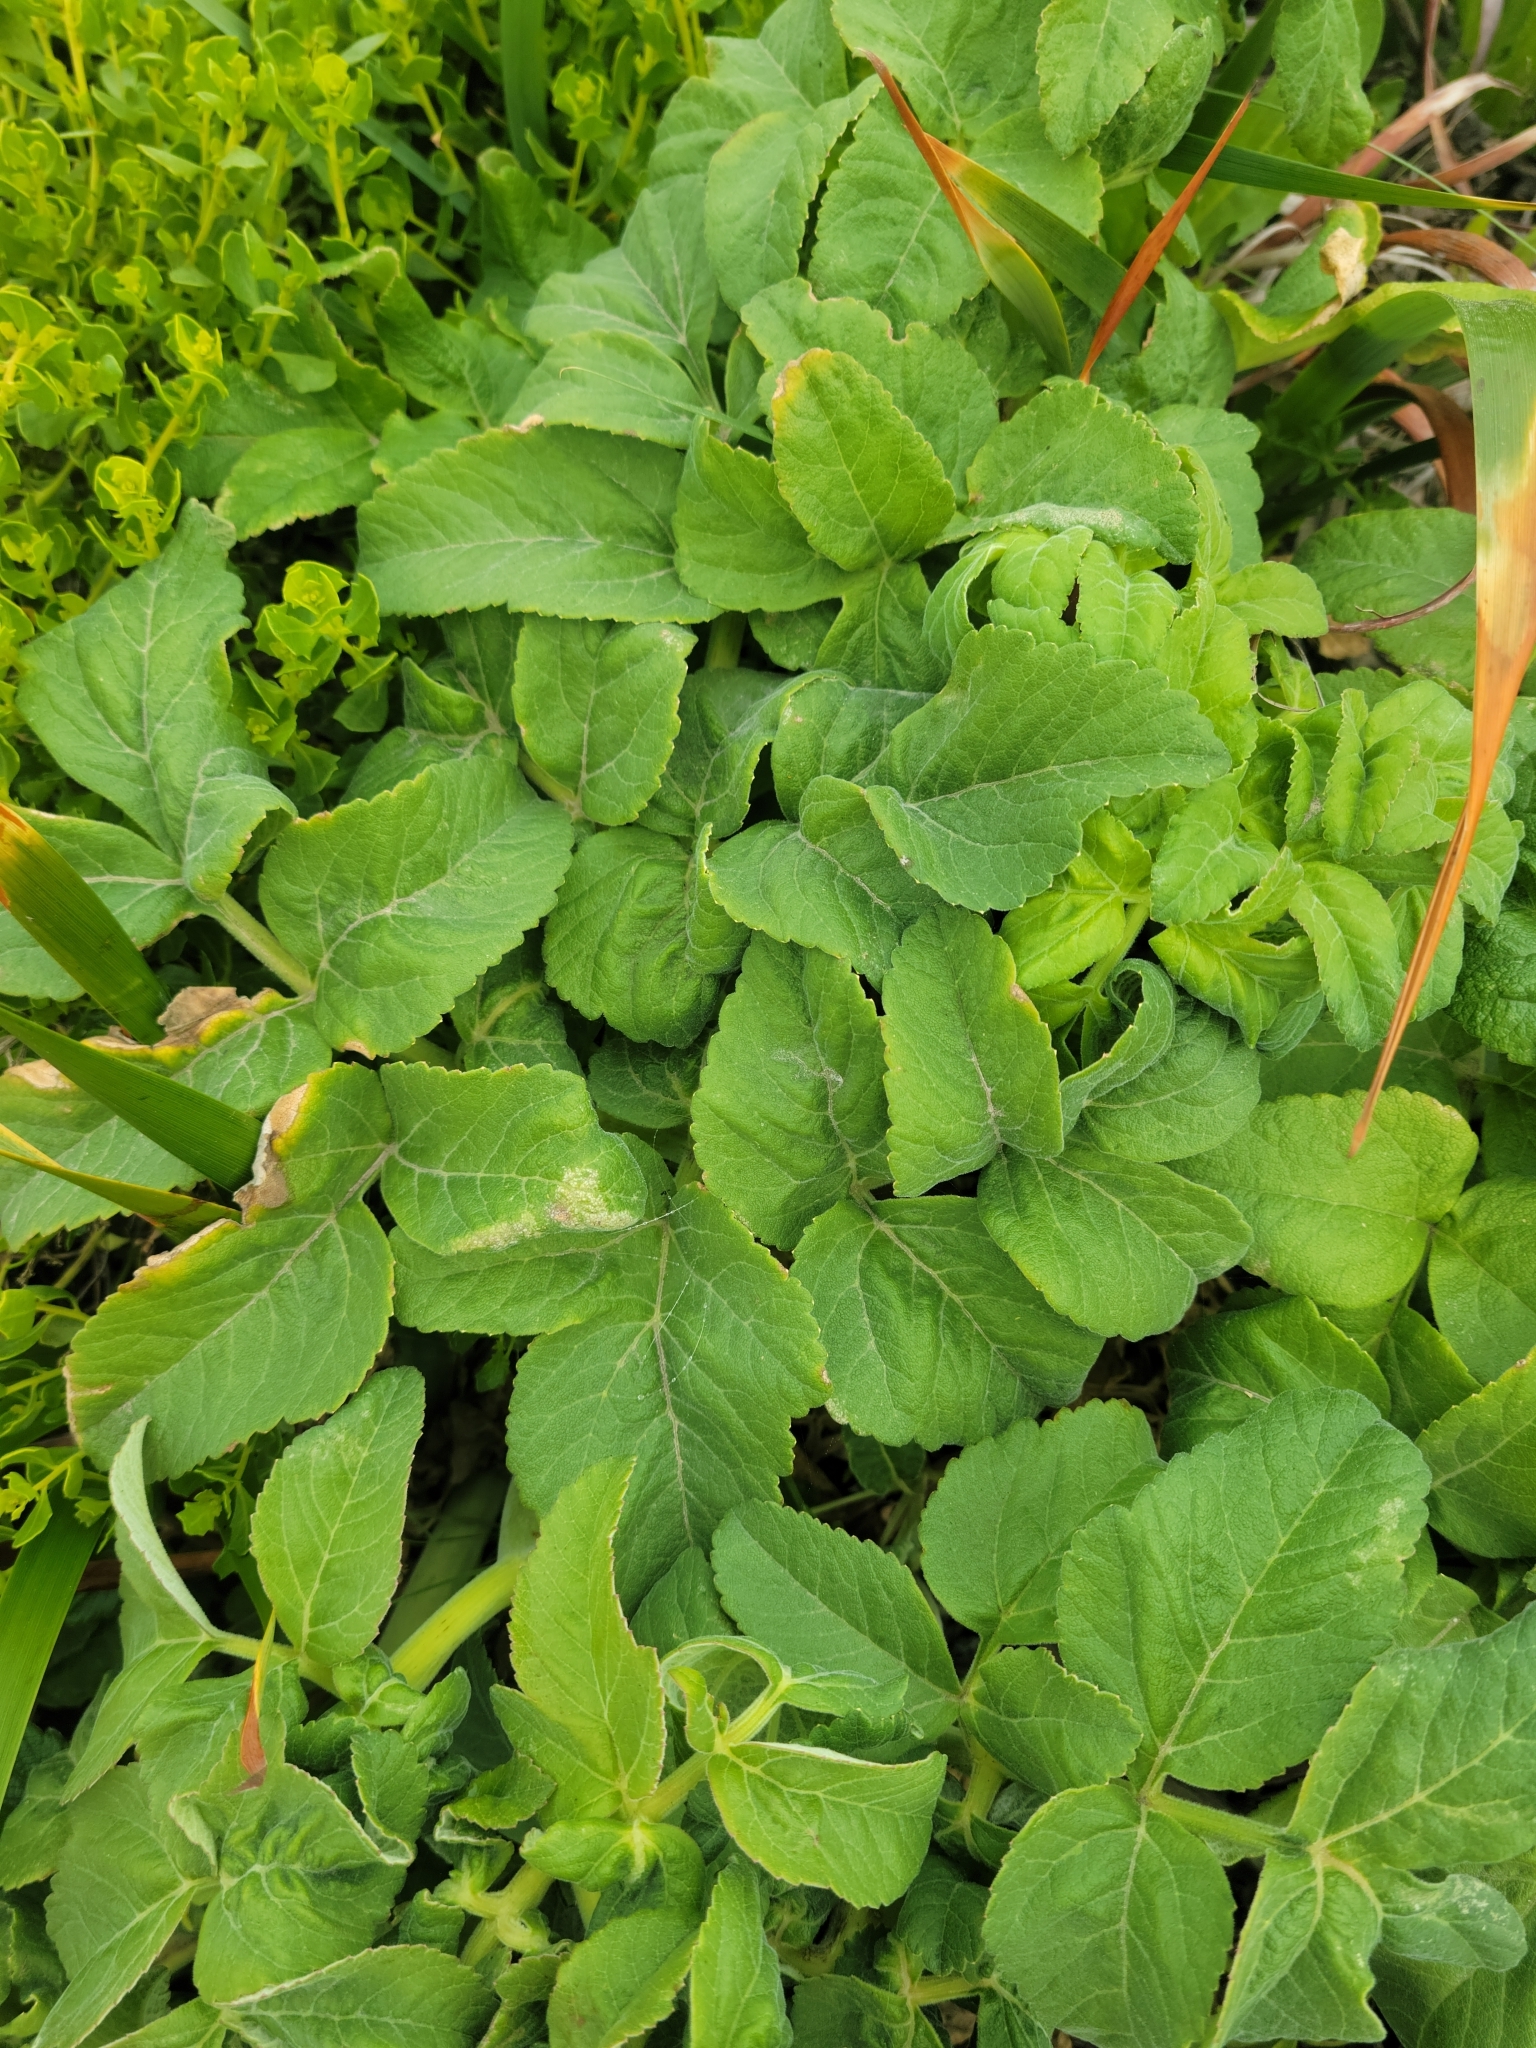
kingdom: Plantae
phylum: Tracheophyta
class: Magnoliopsida
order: Apiales
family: Apiaceae
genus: Angelica
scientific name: Angelica hendersonii
